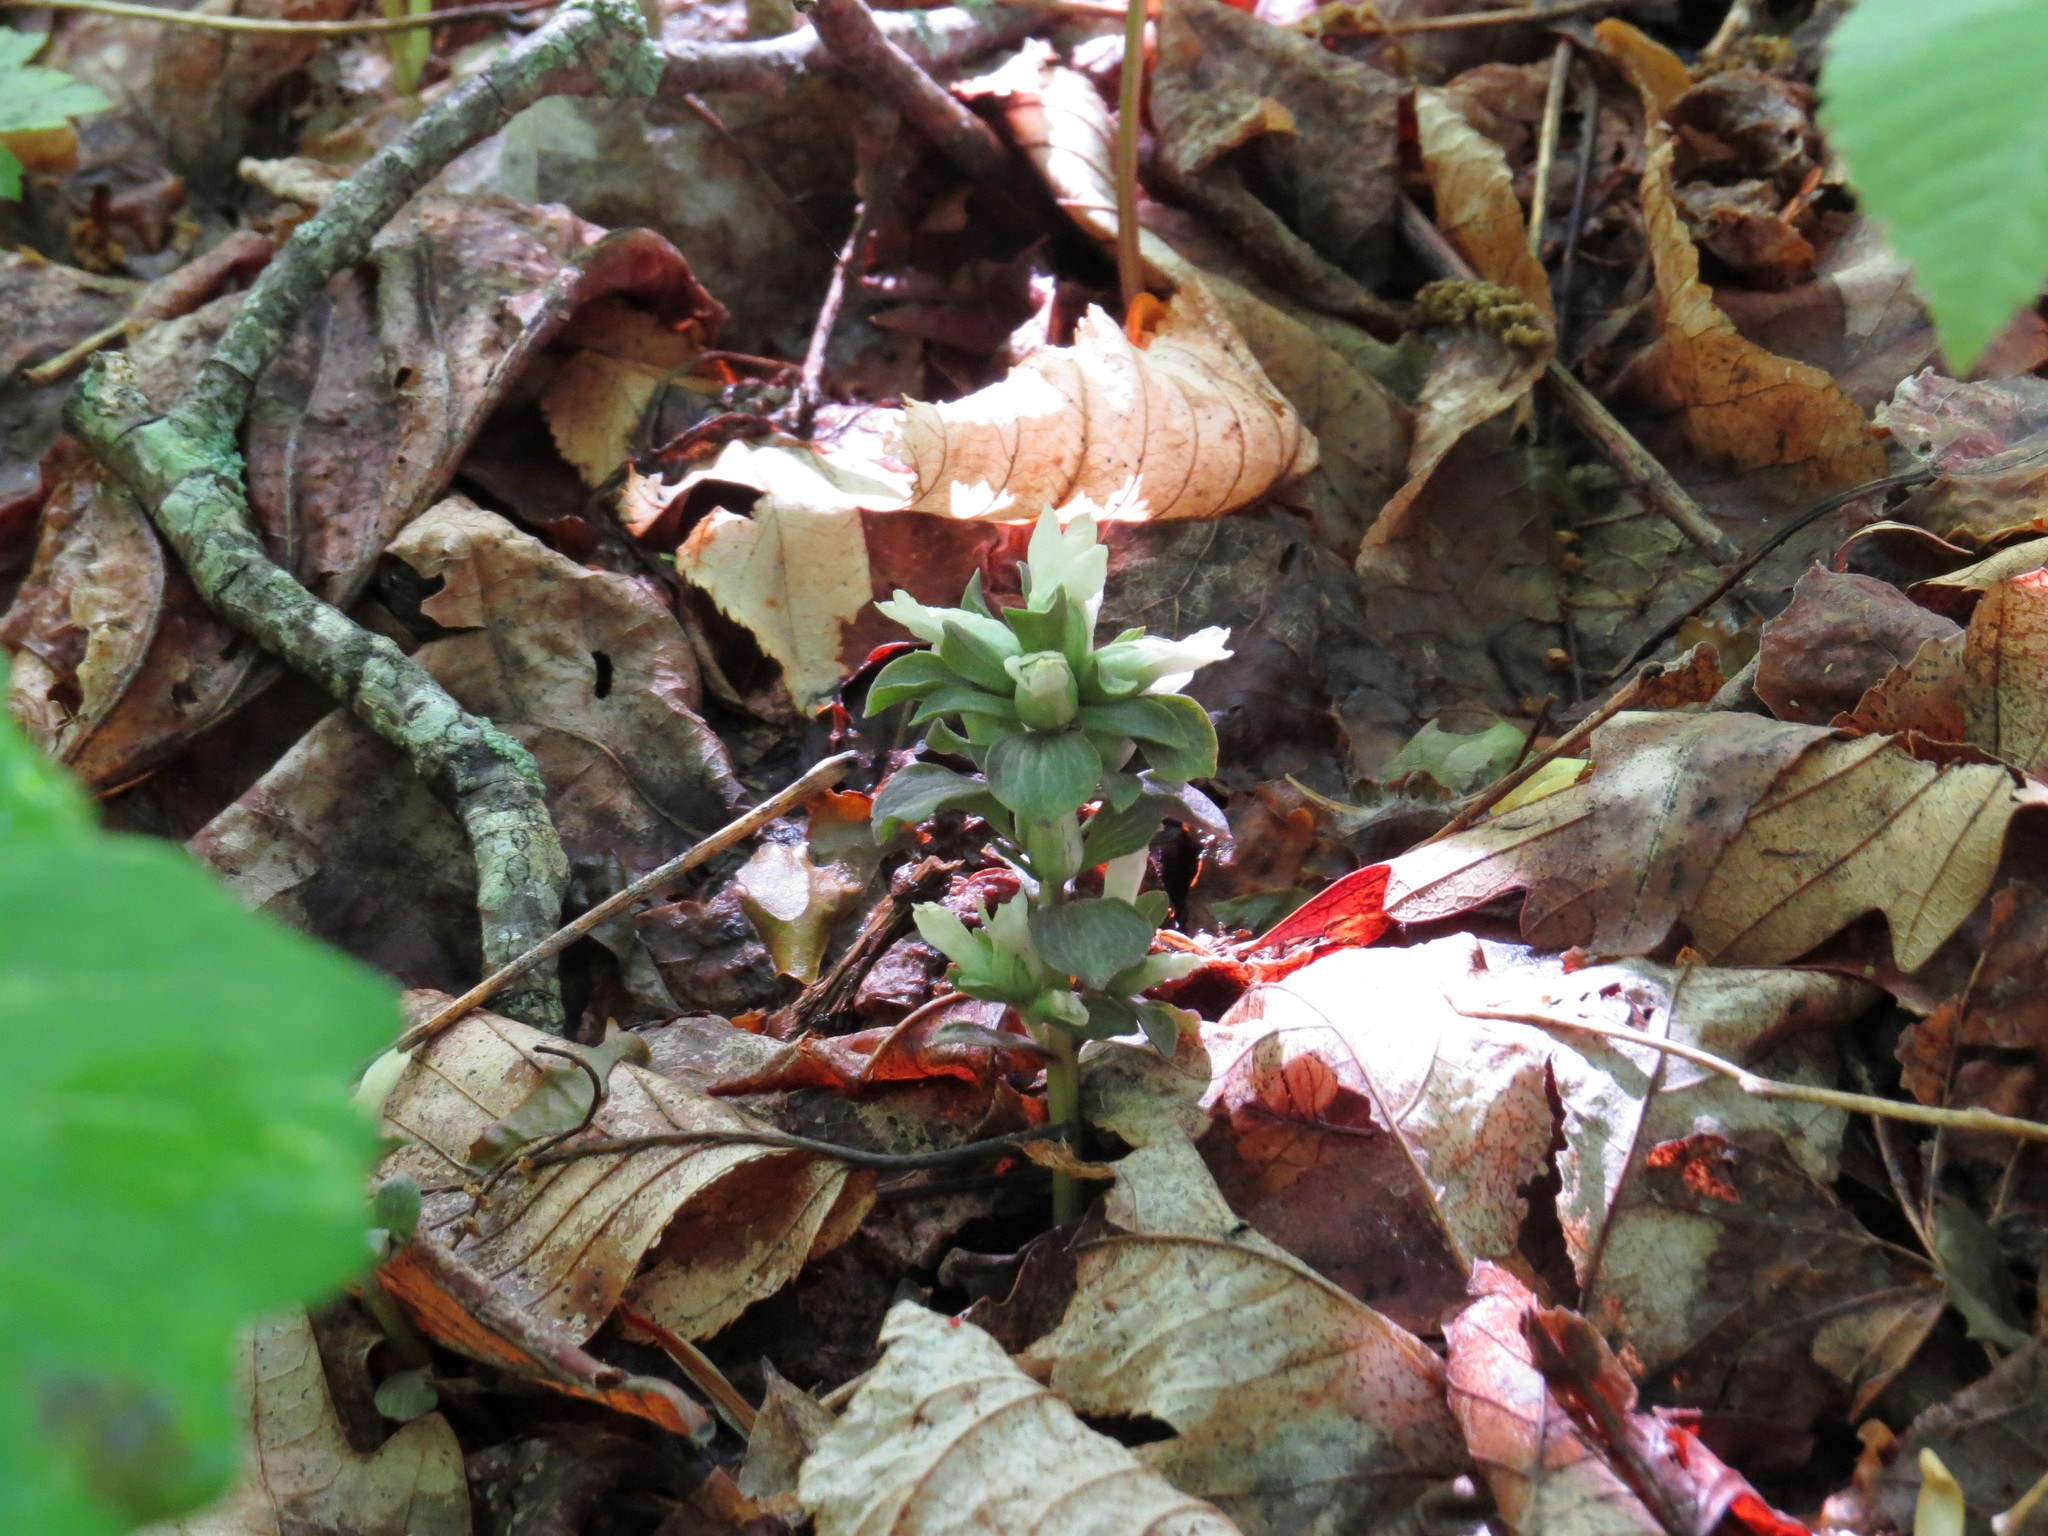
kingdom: Plantae
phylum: Tracheophyta
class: Magnoliopsida
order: Gentianales
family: Gentianaceae
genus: Obolaria
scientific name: Obolaria virginica
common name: Pennywort
